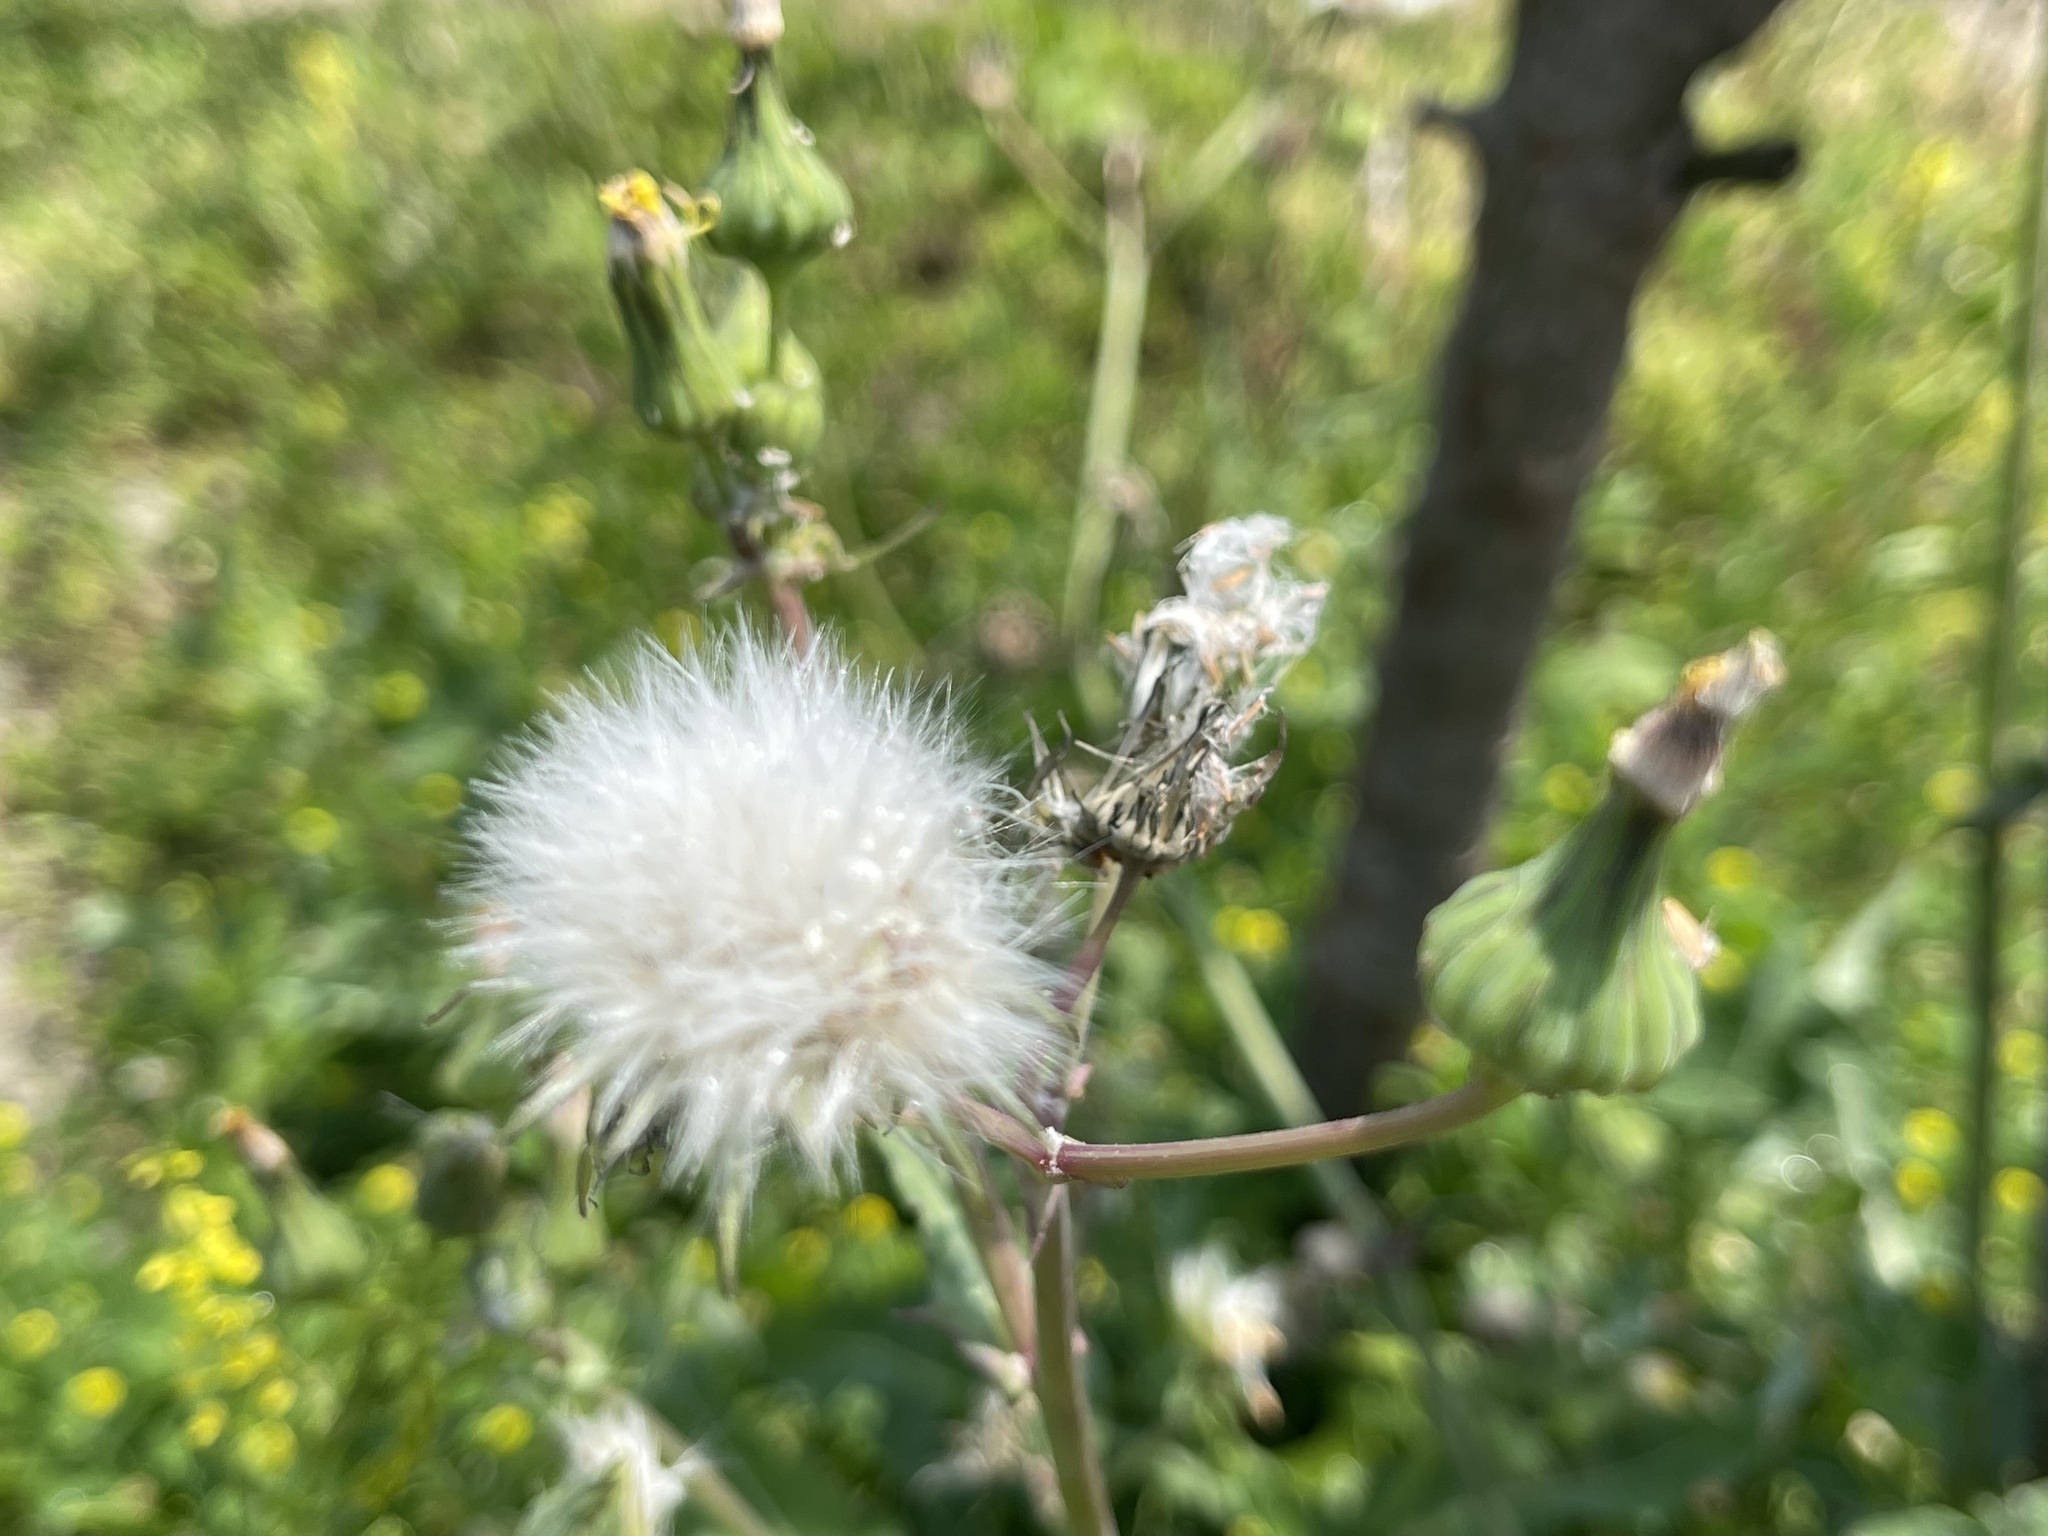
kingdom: Plantae
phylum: Tracheophyta
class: Magnoliopsida
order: Asterales
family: Asteraceae
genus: Sonchus
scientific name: Sonchus oleraceus
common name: Common sowthistle
